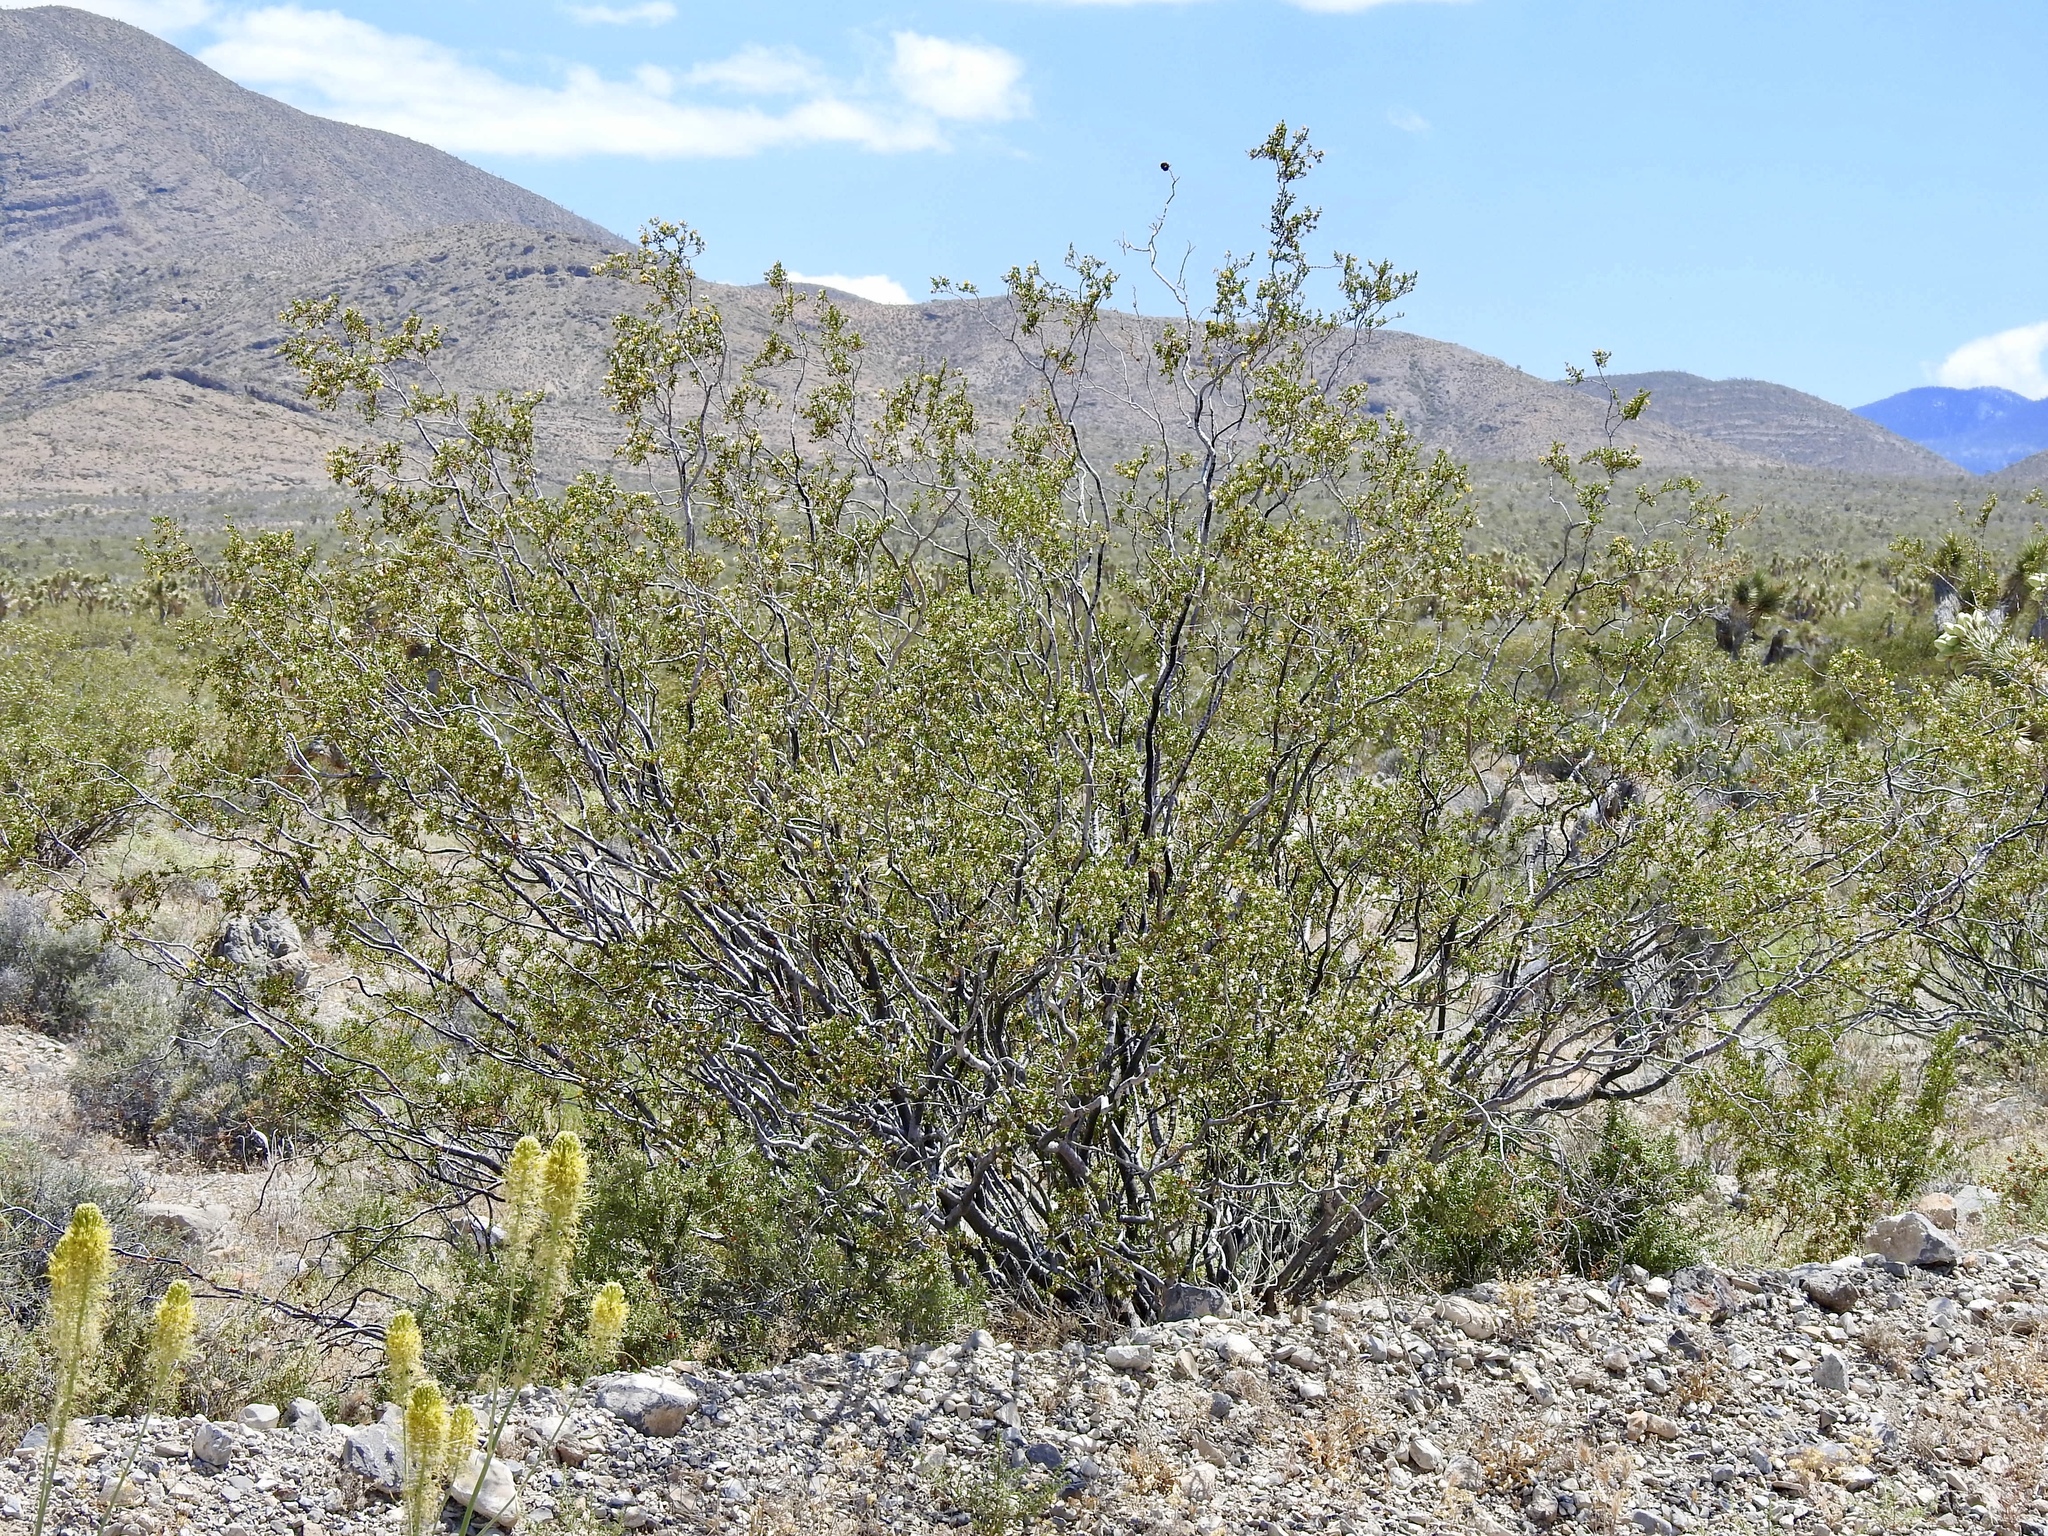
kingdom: Plantae
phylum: Tracheophyta
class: Magnoliopsida
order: Zygophyllales
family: Zygophyllaceae
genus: Larrea
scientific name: Larrea tridentata
